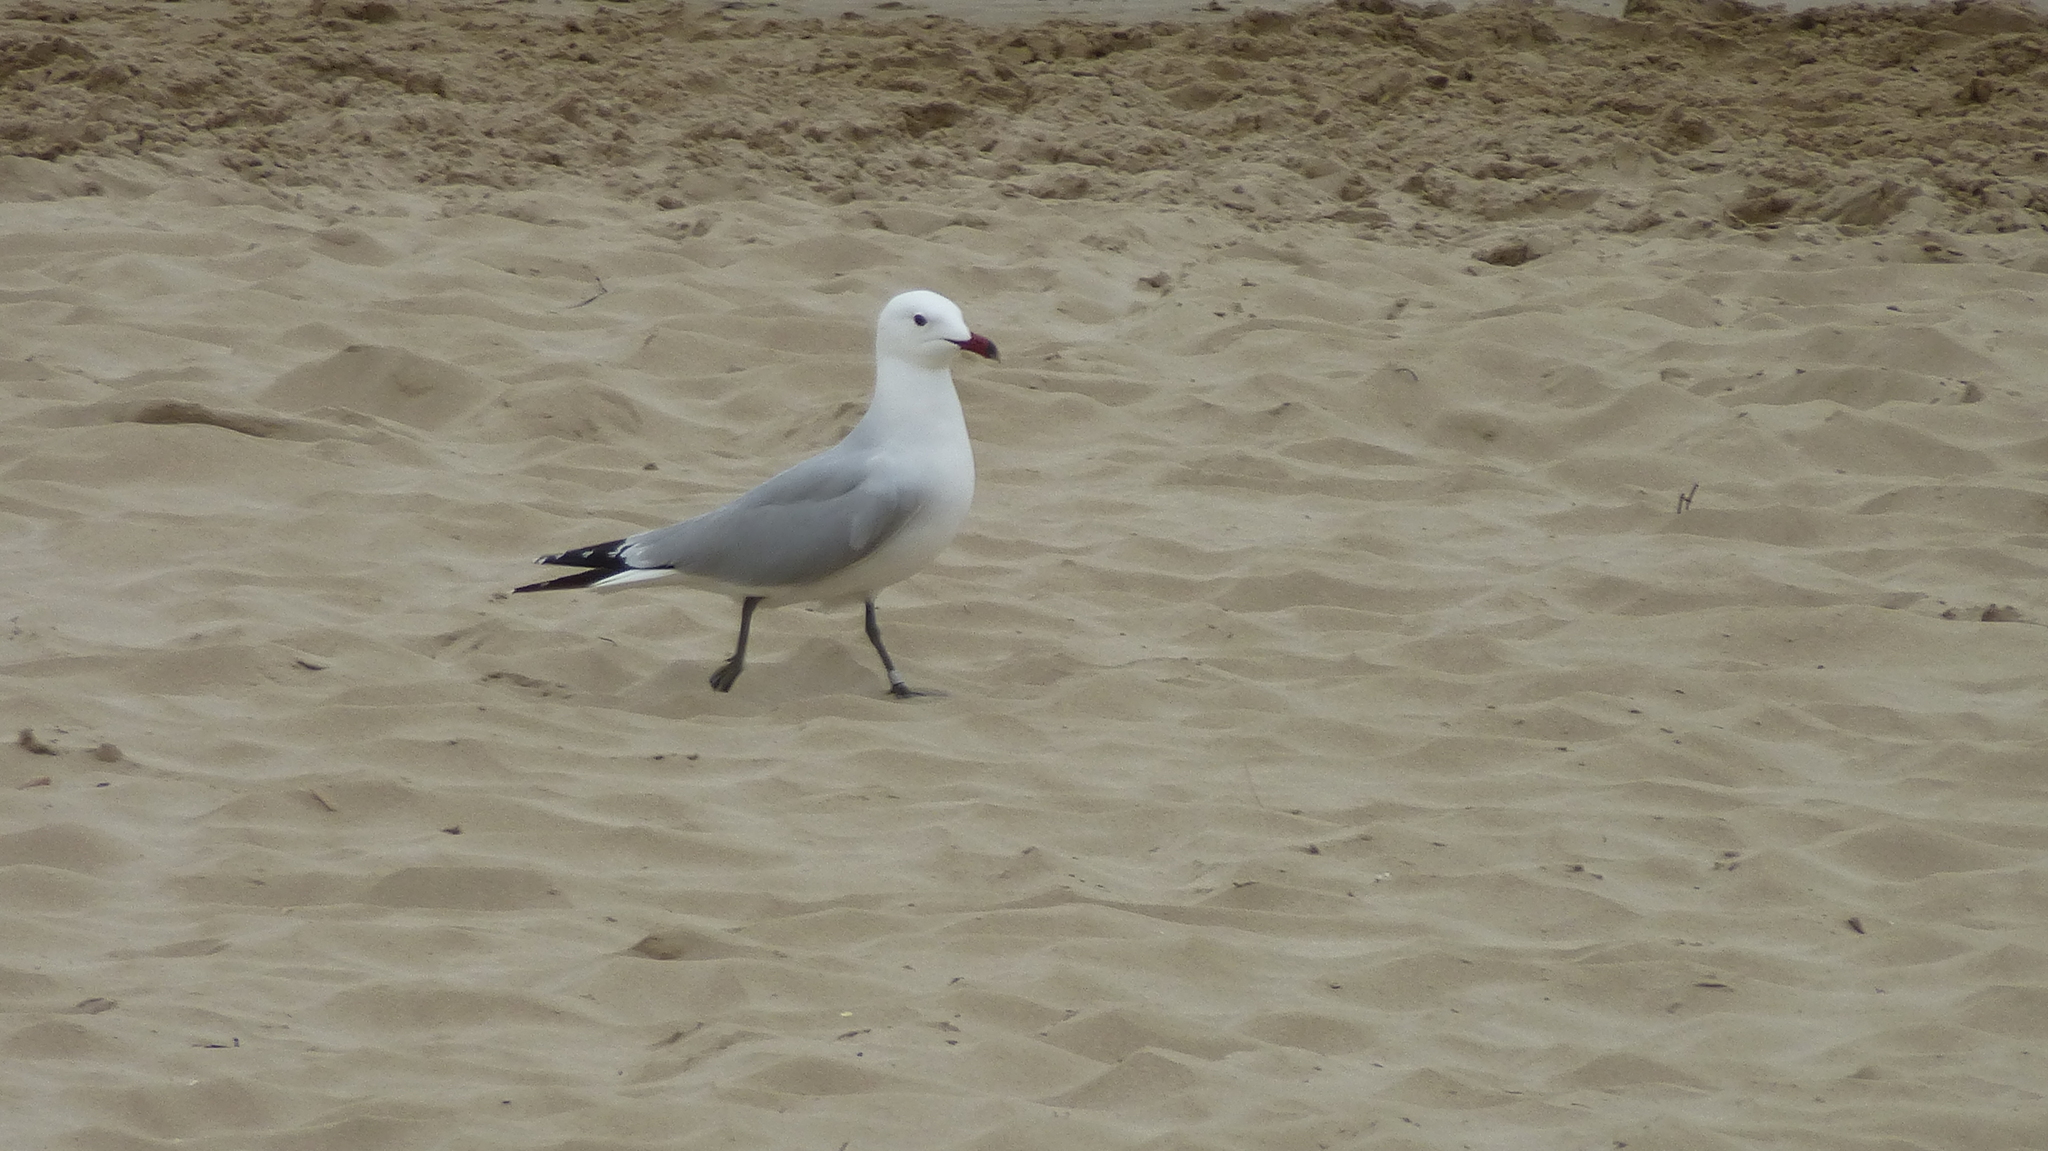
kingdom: Animalia
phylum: Chordata
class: Aves
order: Charadriiformes
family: Laridae
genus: Ichthyaetus
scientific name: Ichthyaetus audouinii
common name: Audouin's gull
